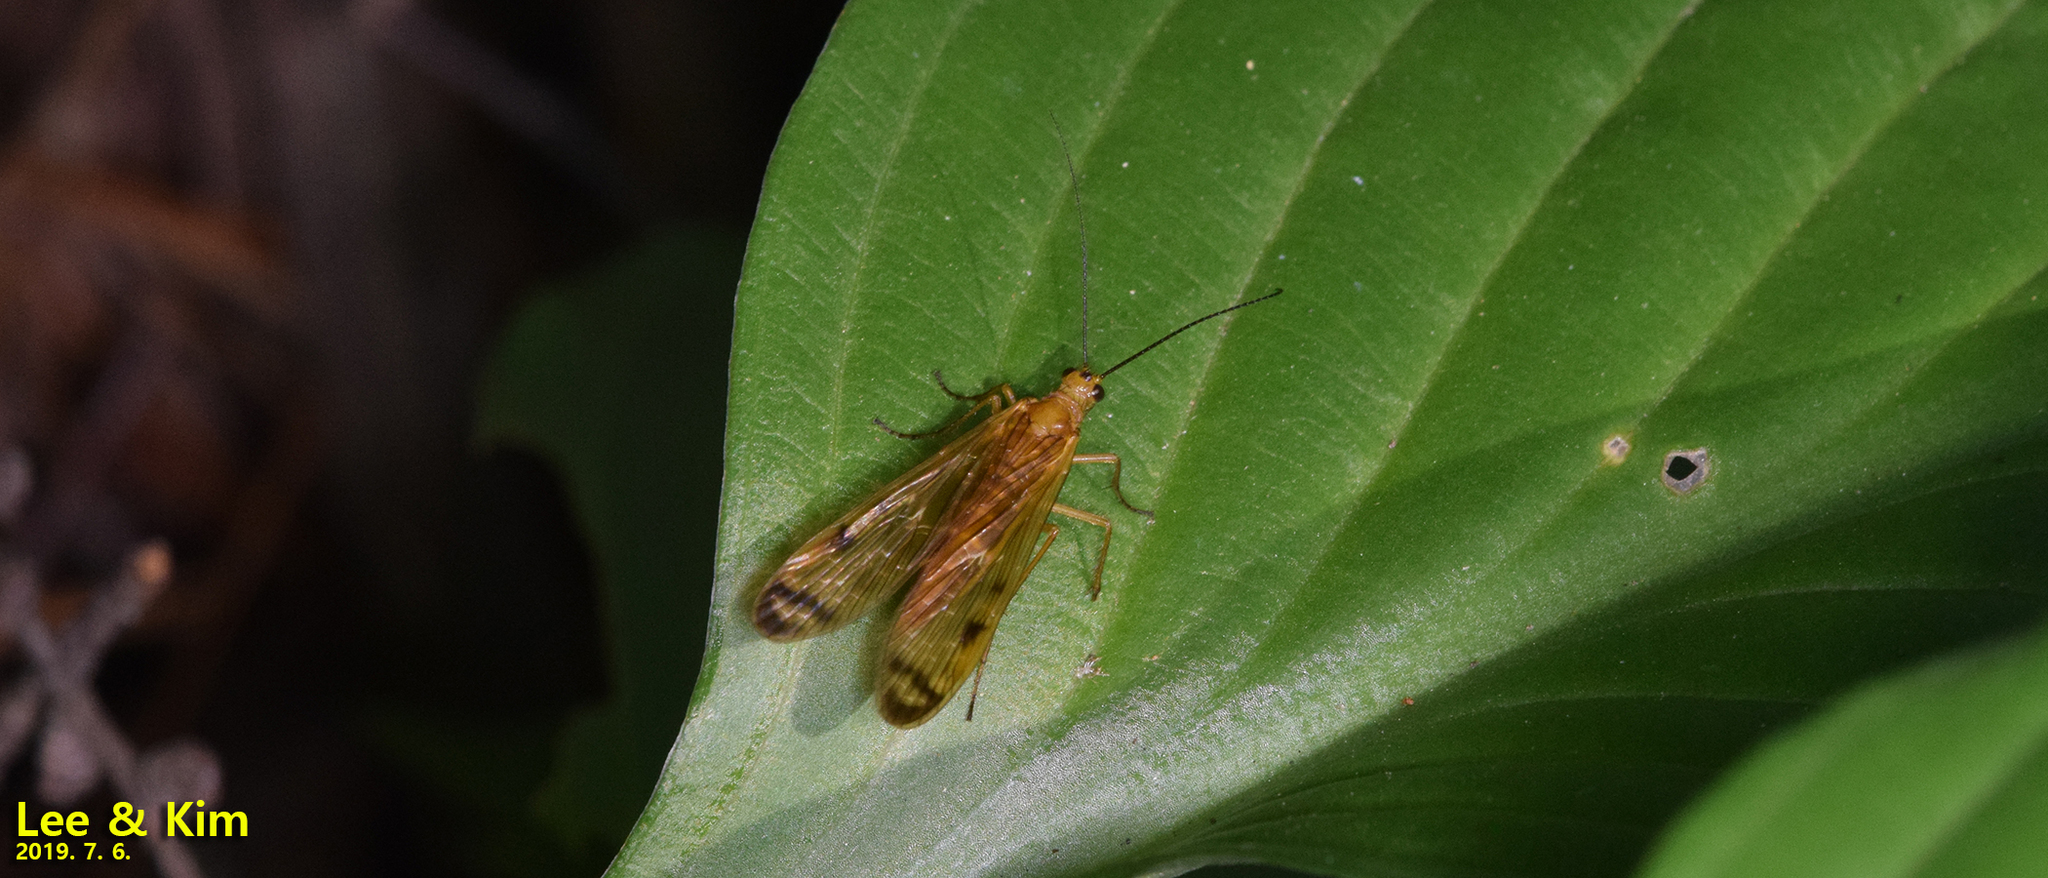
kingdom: Animalia
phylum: Arthropoda
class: Insecta
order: Mecoptera
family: Panorpodidae
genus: Panorpodes
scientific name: Panorpodes komaensis
